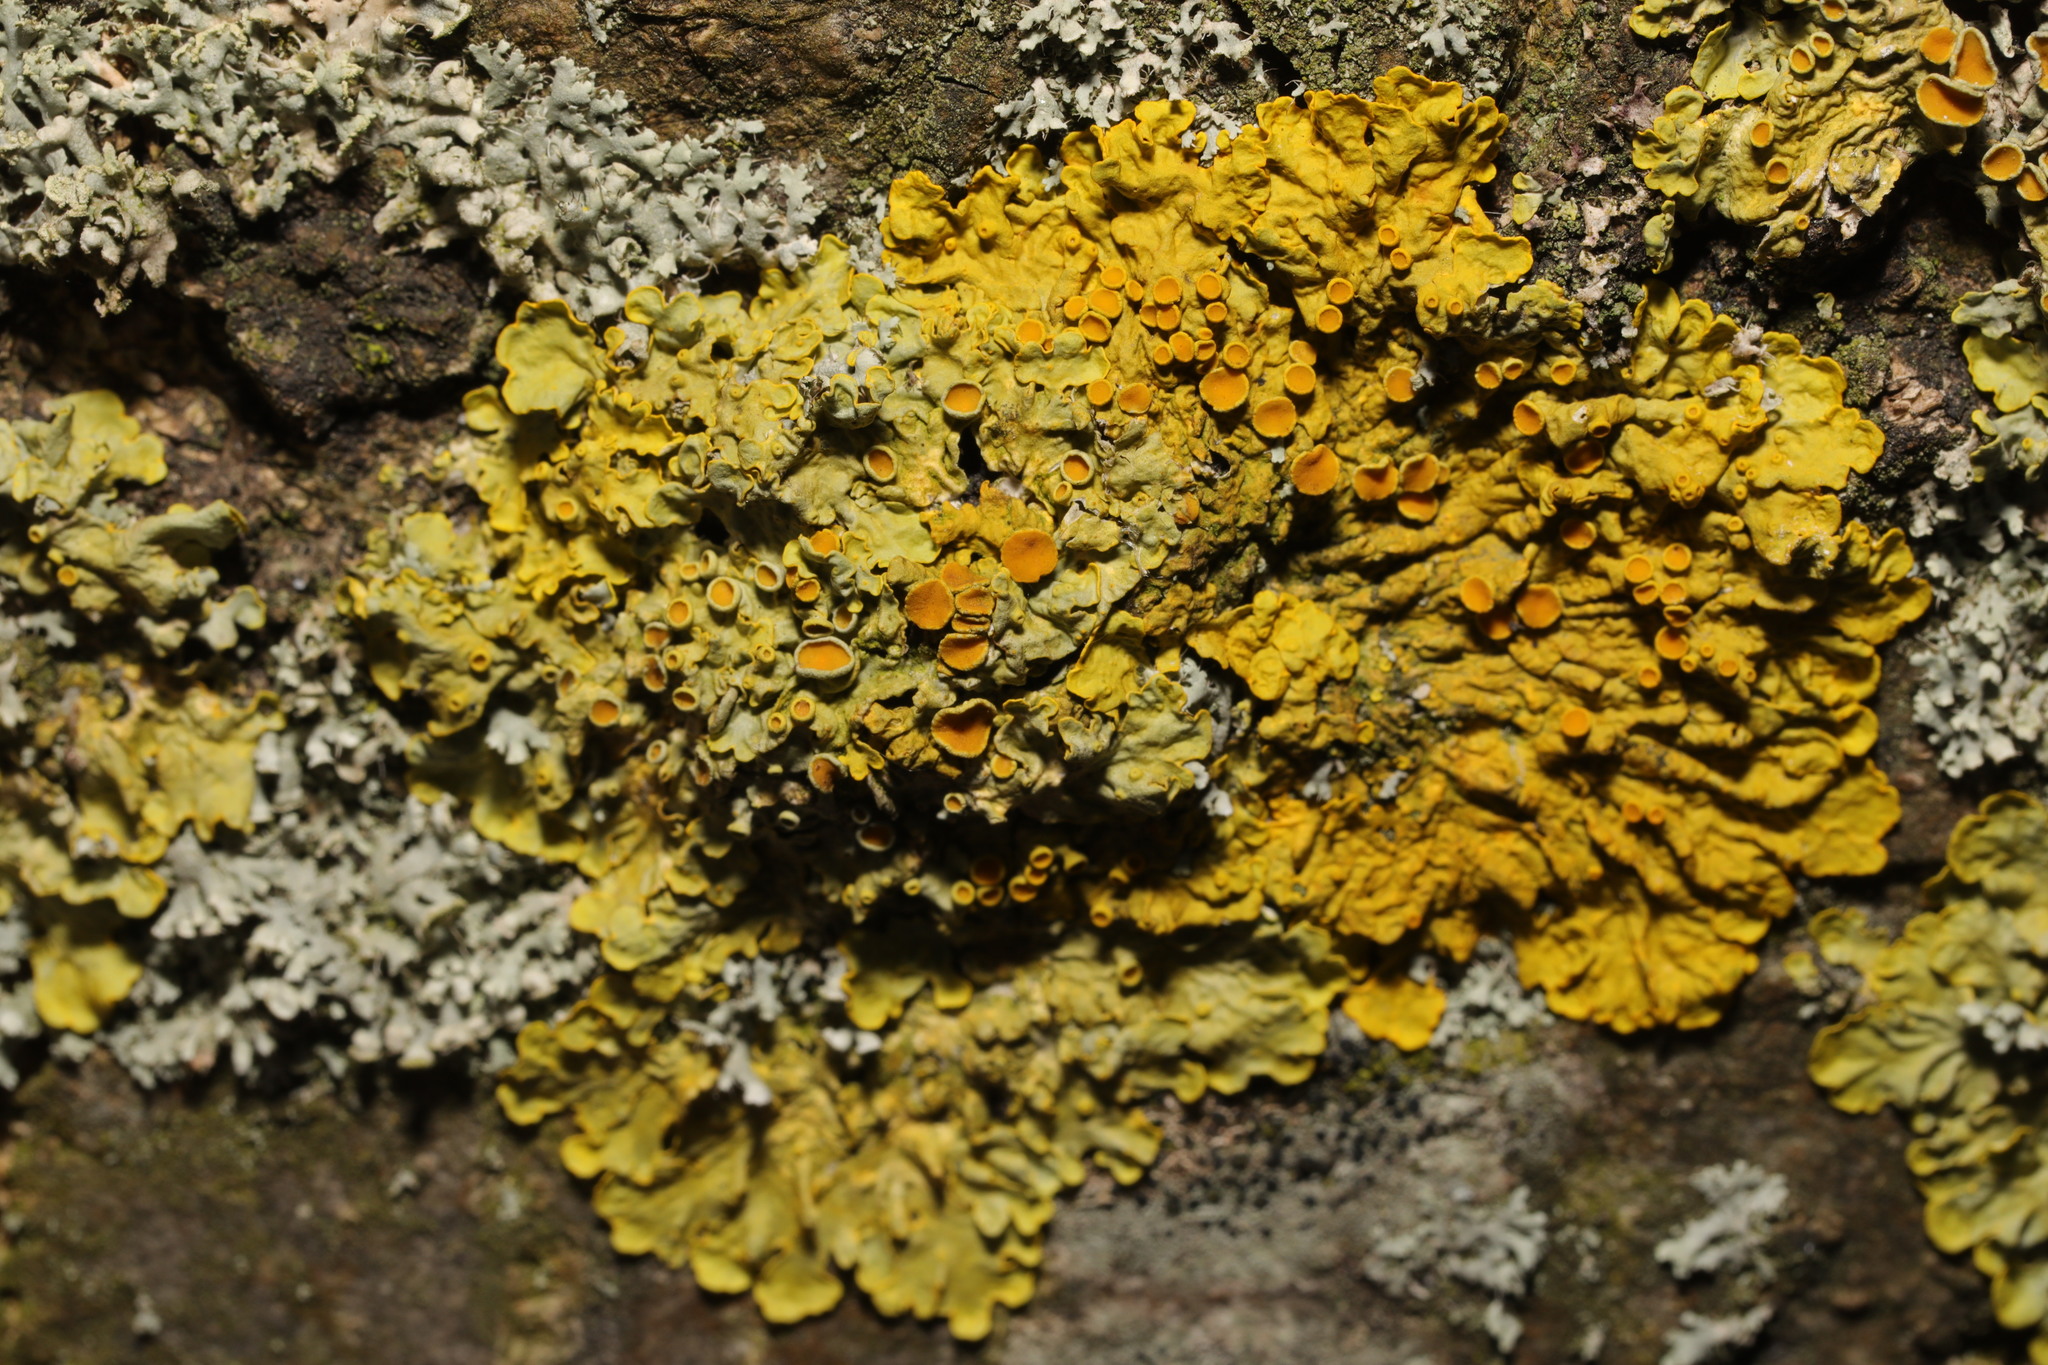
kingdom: Fungi
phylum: Ascomycota
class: Lecanoromycetes
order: Teloschistales
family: Teloschistaceae
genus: Xanthoria
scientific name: Xanthoria parietina
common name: Common orange lichen
